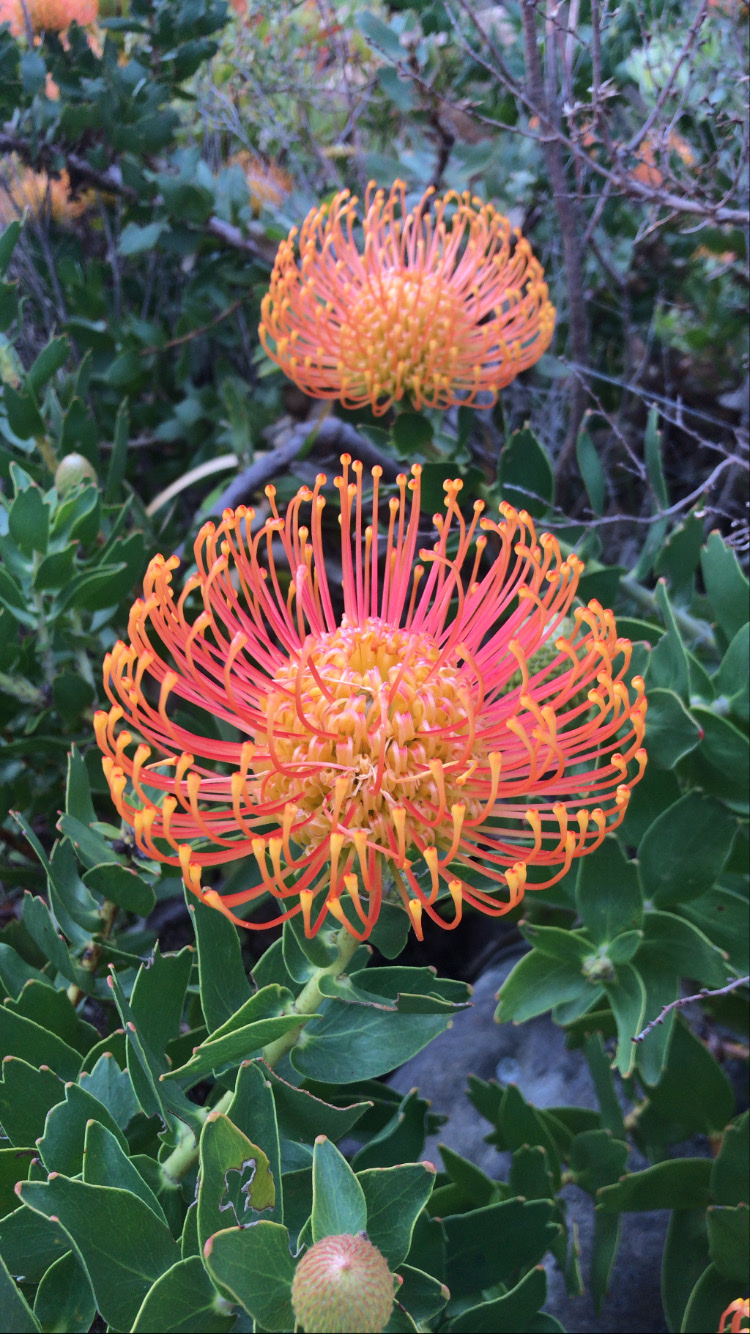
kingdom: Plantae
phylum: Tracheophyta
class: Magnoliopsida
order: Proteales
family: Proteaceae
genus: Leucospermum
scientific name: Leucospermum cordifolium
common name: Red pincushion-protea
